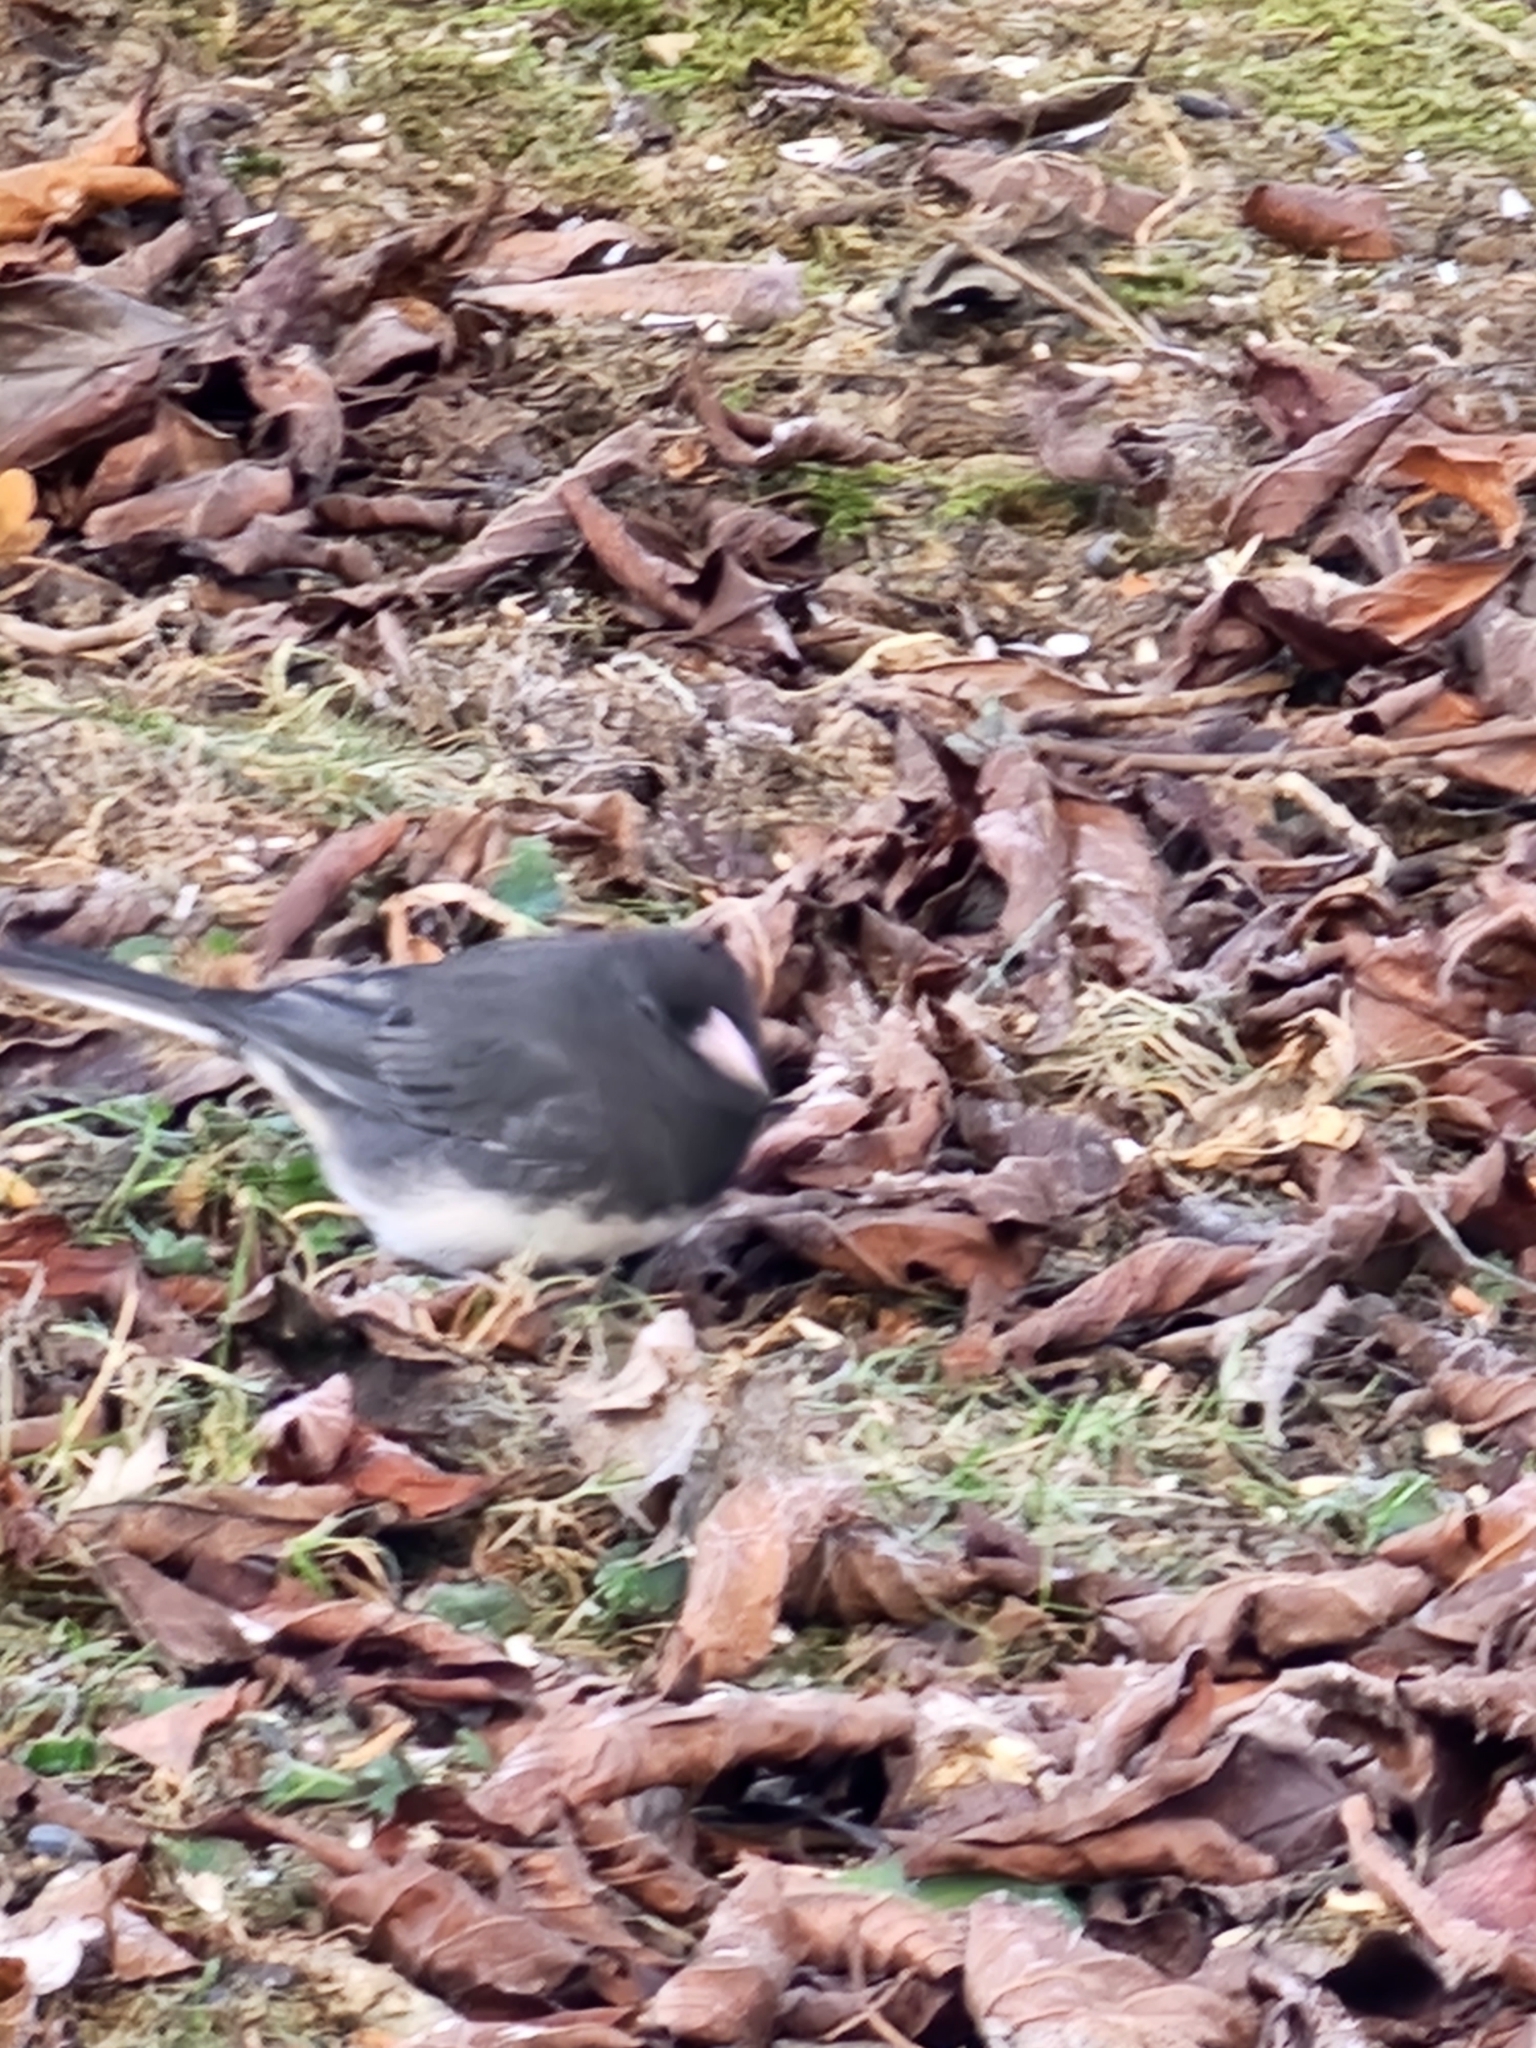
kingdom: Animalia
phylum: Chordata
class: Aves
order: Passeriformes
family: Passerellidae
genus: Junco
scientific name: Junco hyemalis
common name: Dark-eyed junco
